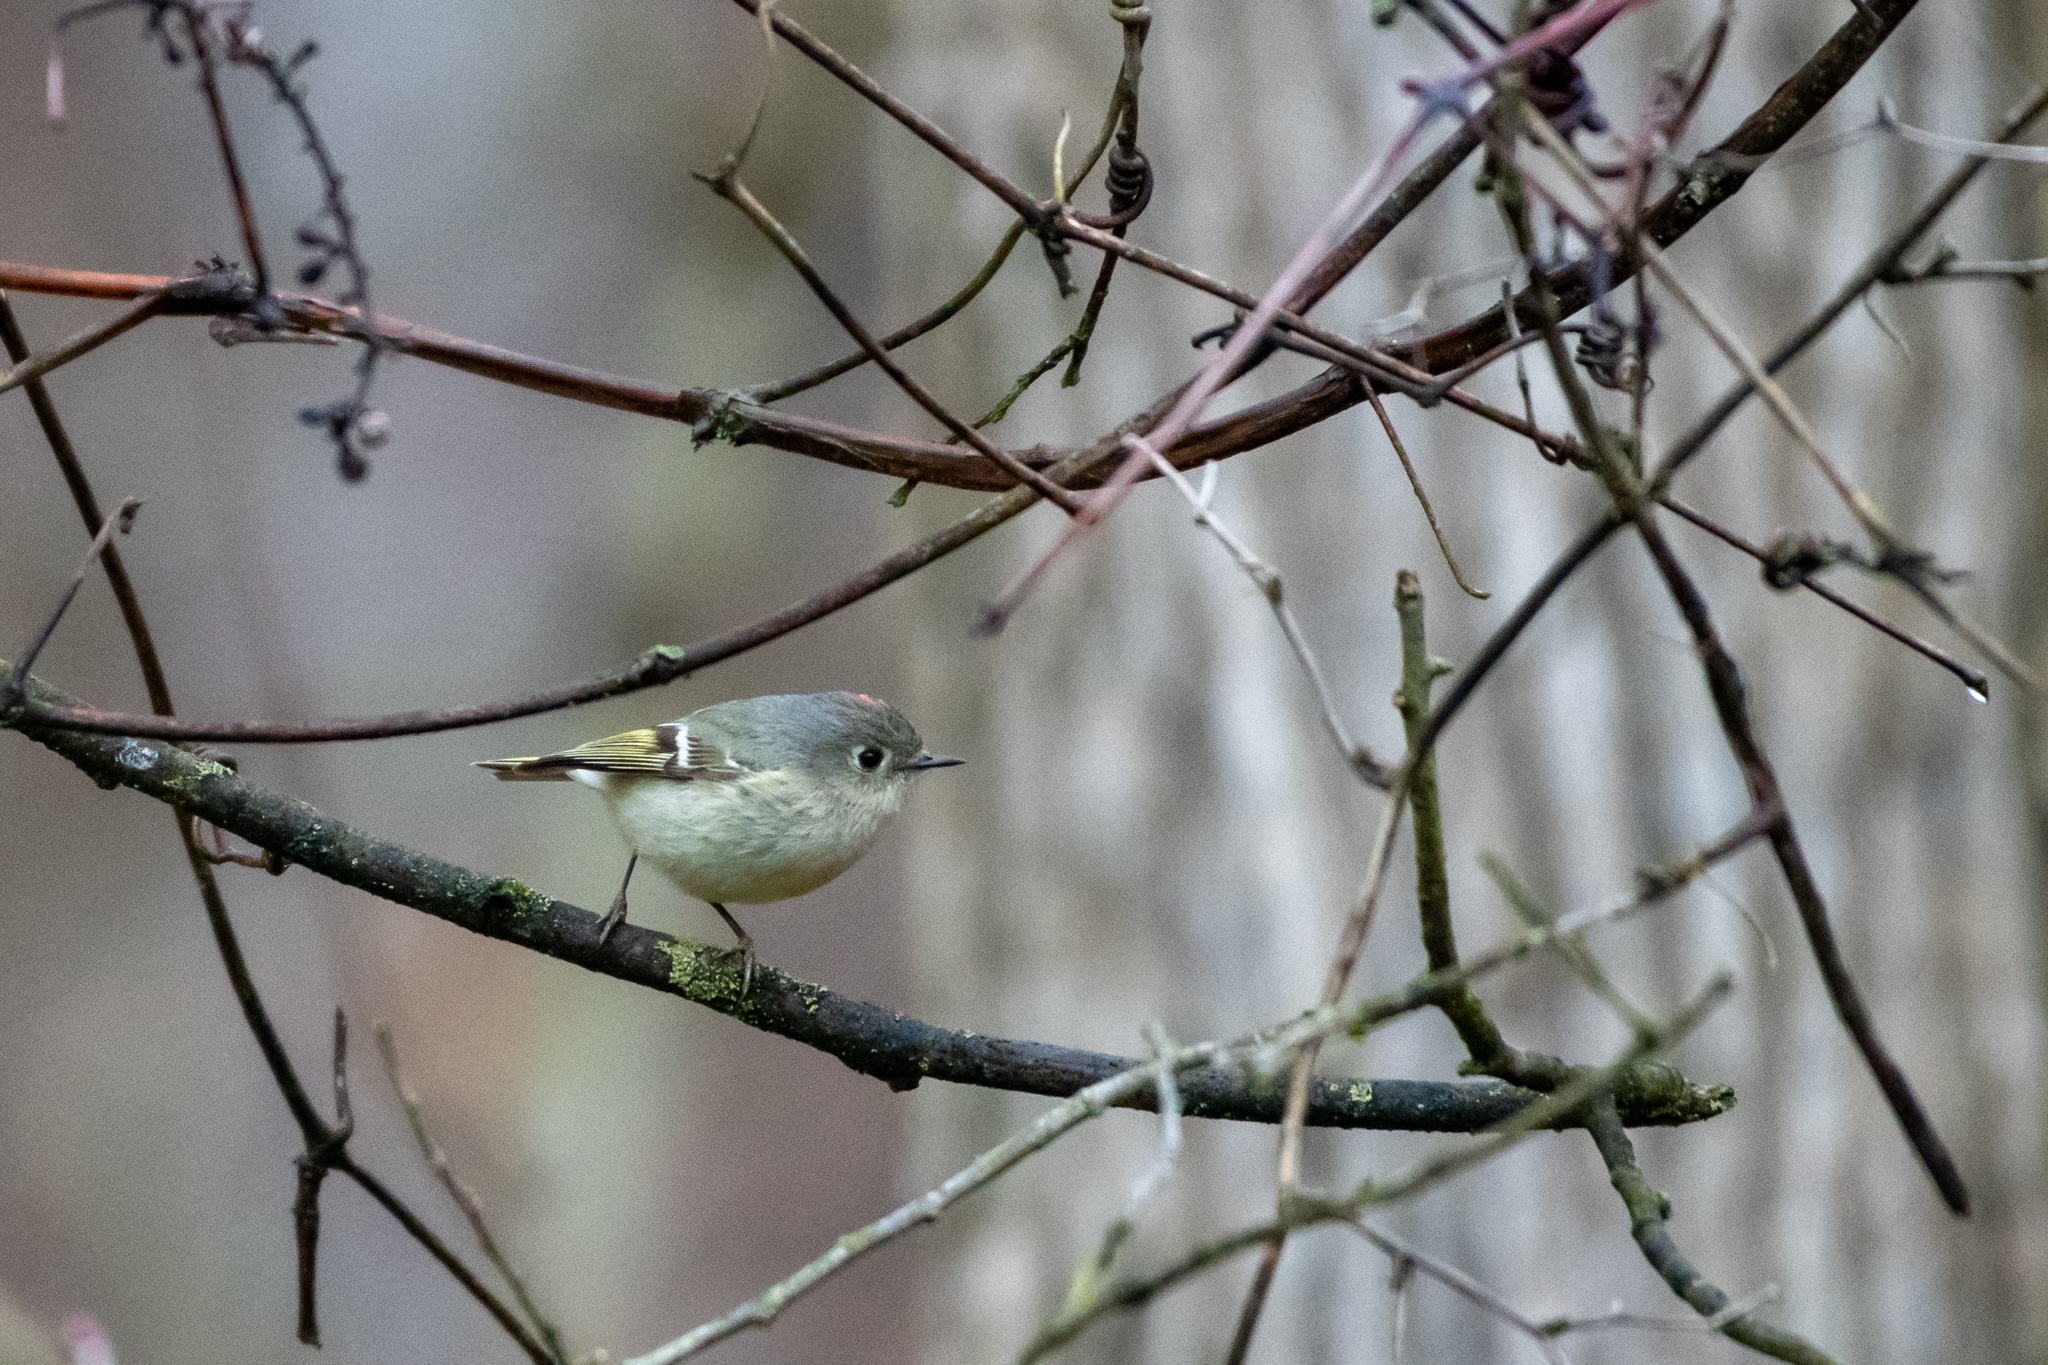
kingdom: Animalia
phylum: Chordata
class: Aves
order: Passeriformes
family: Regulidae
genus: Regulus
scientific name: Regulus calendula
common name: Ruby-crowned kinglet
